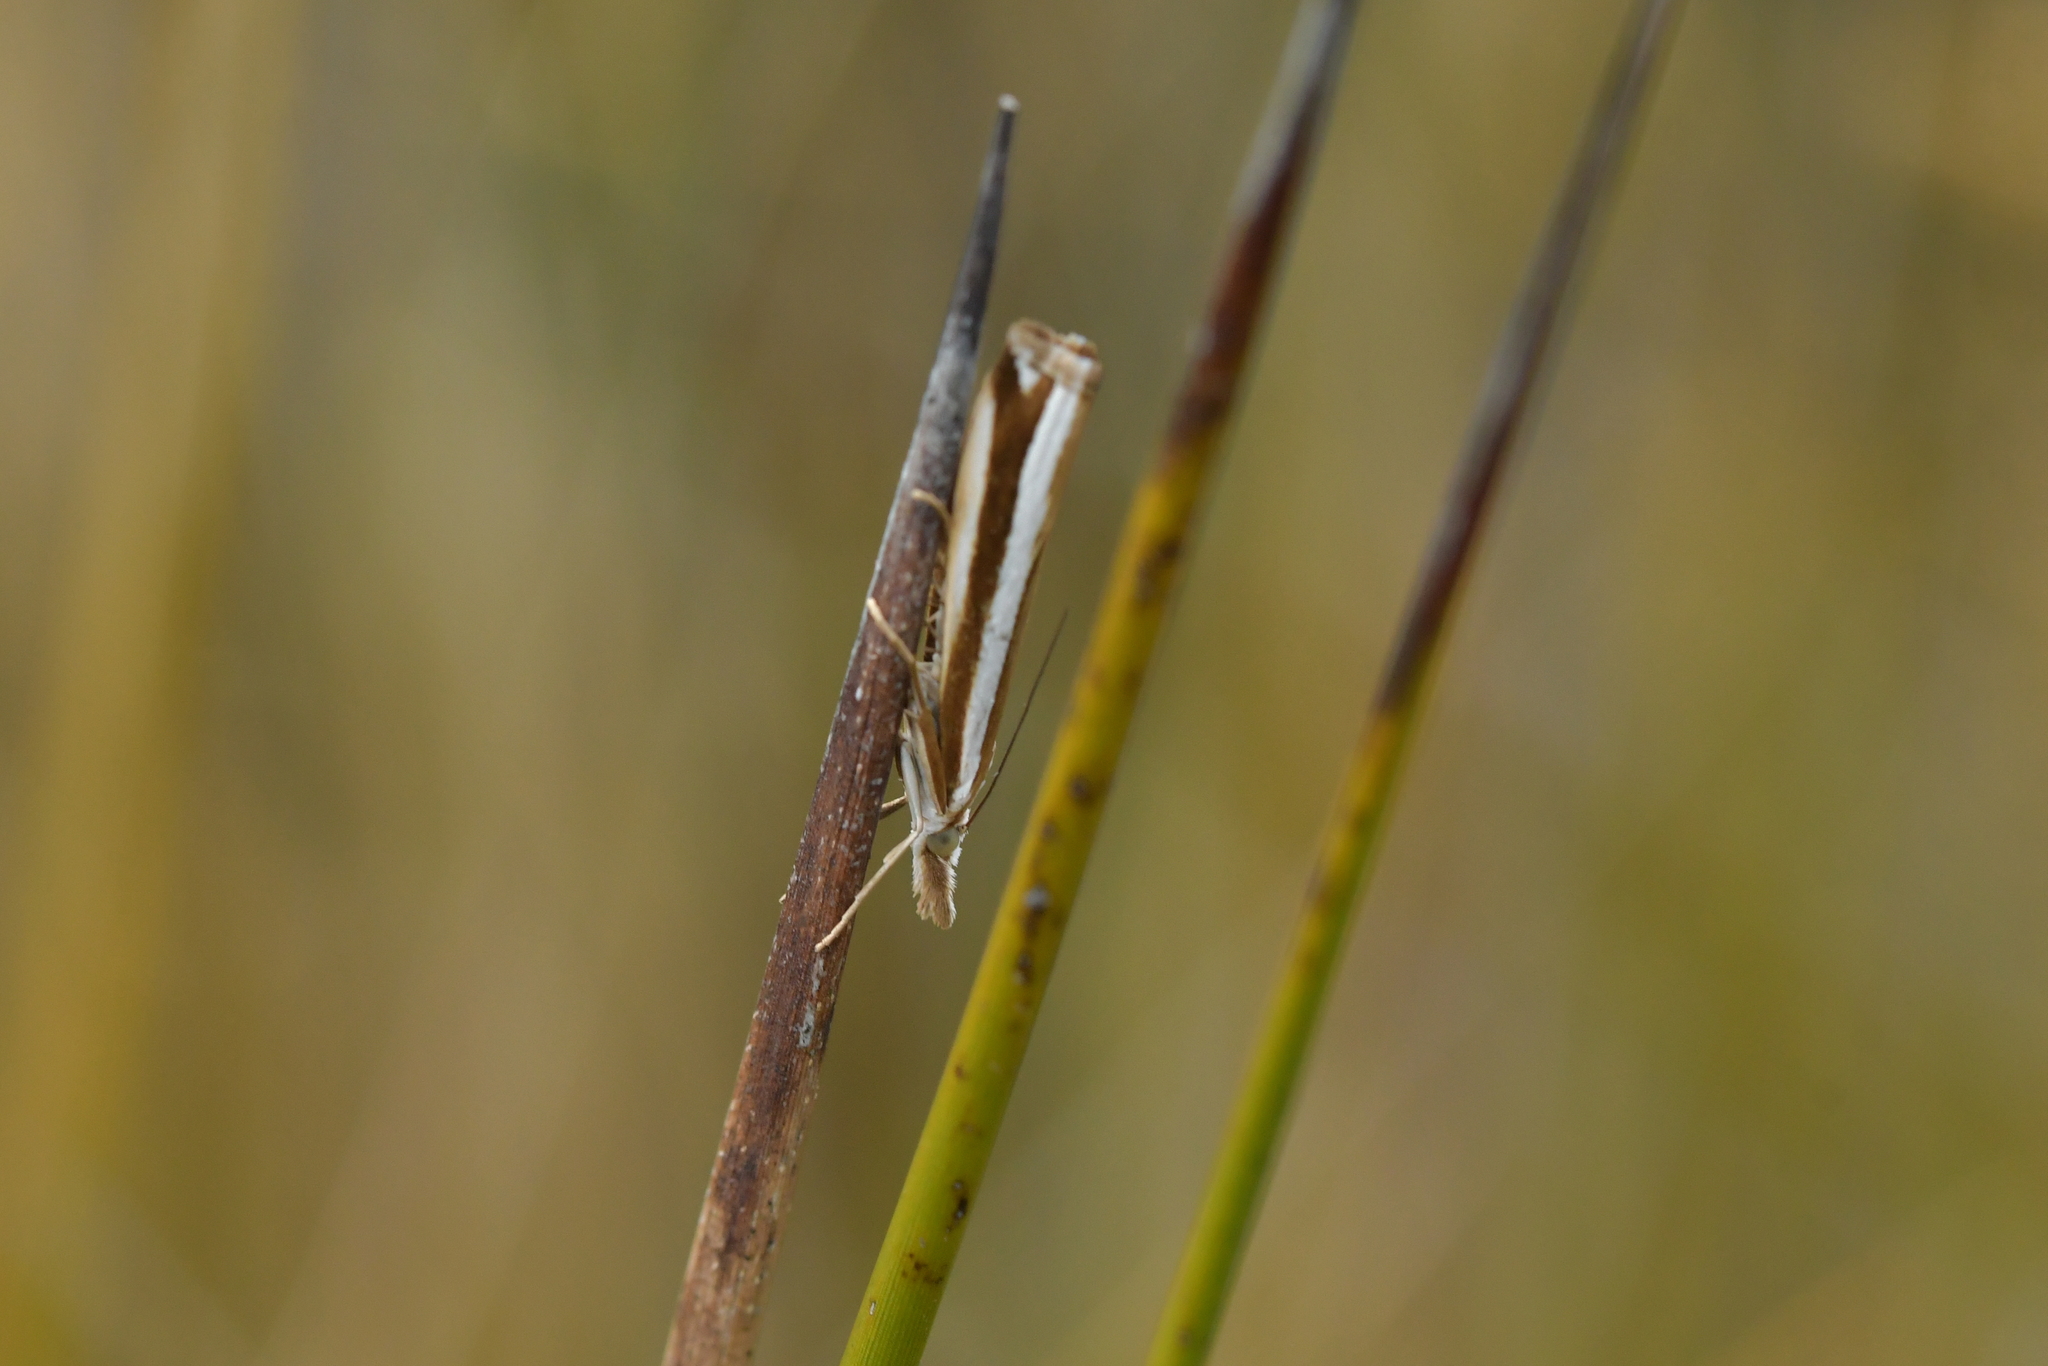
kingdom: Animalia
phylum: Arthropoda
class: Insecta
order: Lepidoptera
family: Crambidae
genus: Orocrambus
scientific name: Orocrambus apicellus
